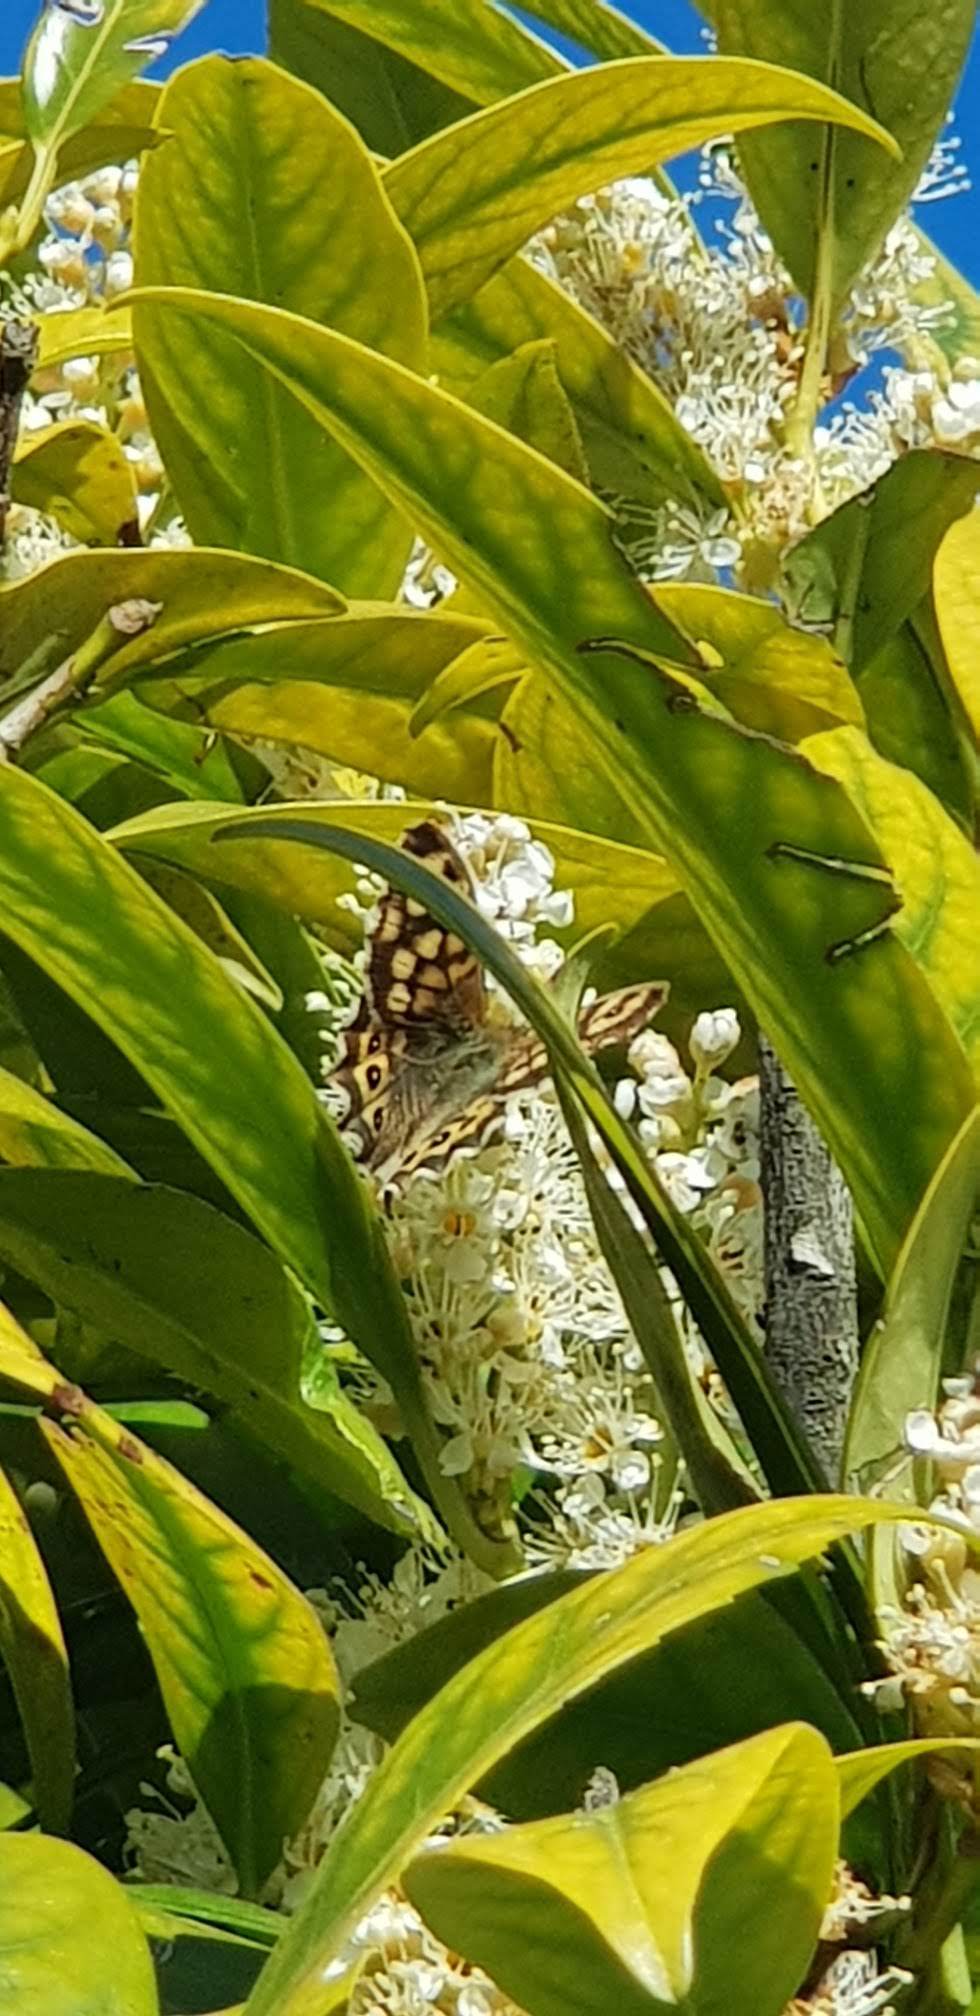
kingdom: Animalia
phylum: Arthropoda
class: Insecta
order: Lepidoptera
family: Nymphalidae
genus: Pararge
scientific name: Pararge aegeria
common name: Speckled wood
